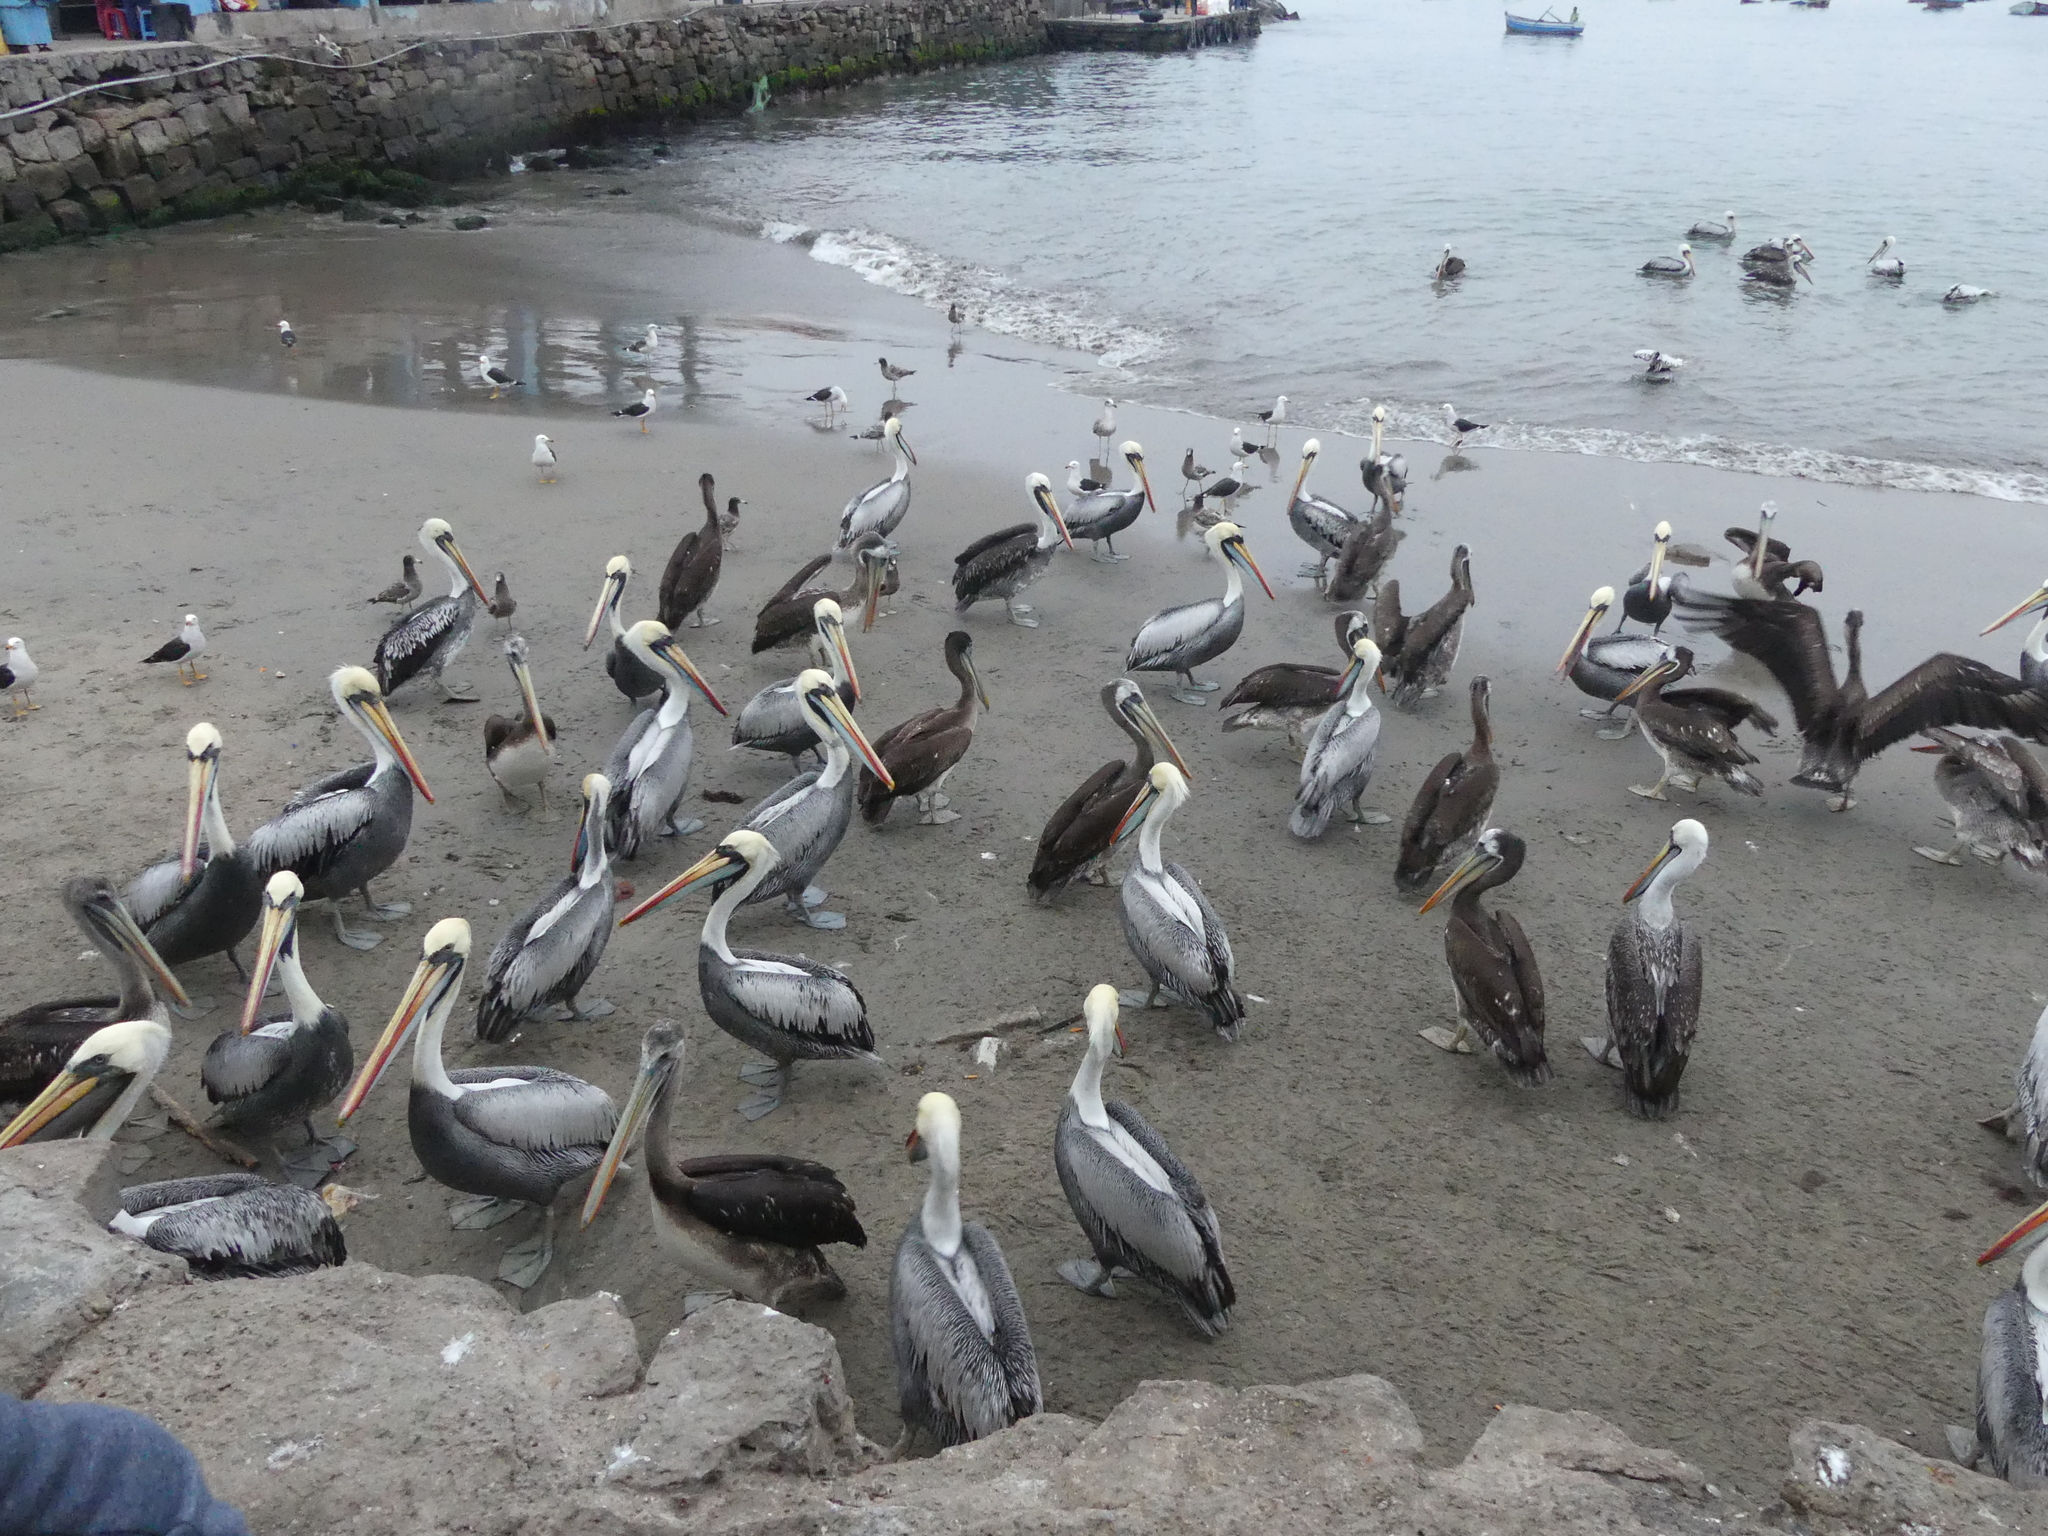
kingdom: Animalia
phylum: Chordata
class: Aves
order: Pelecaniformes
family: Pelecanidae
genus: Pelecanus
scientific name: Pelecanus thagus
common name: Peruvian pelican
